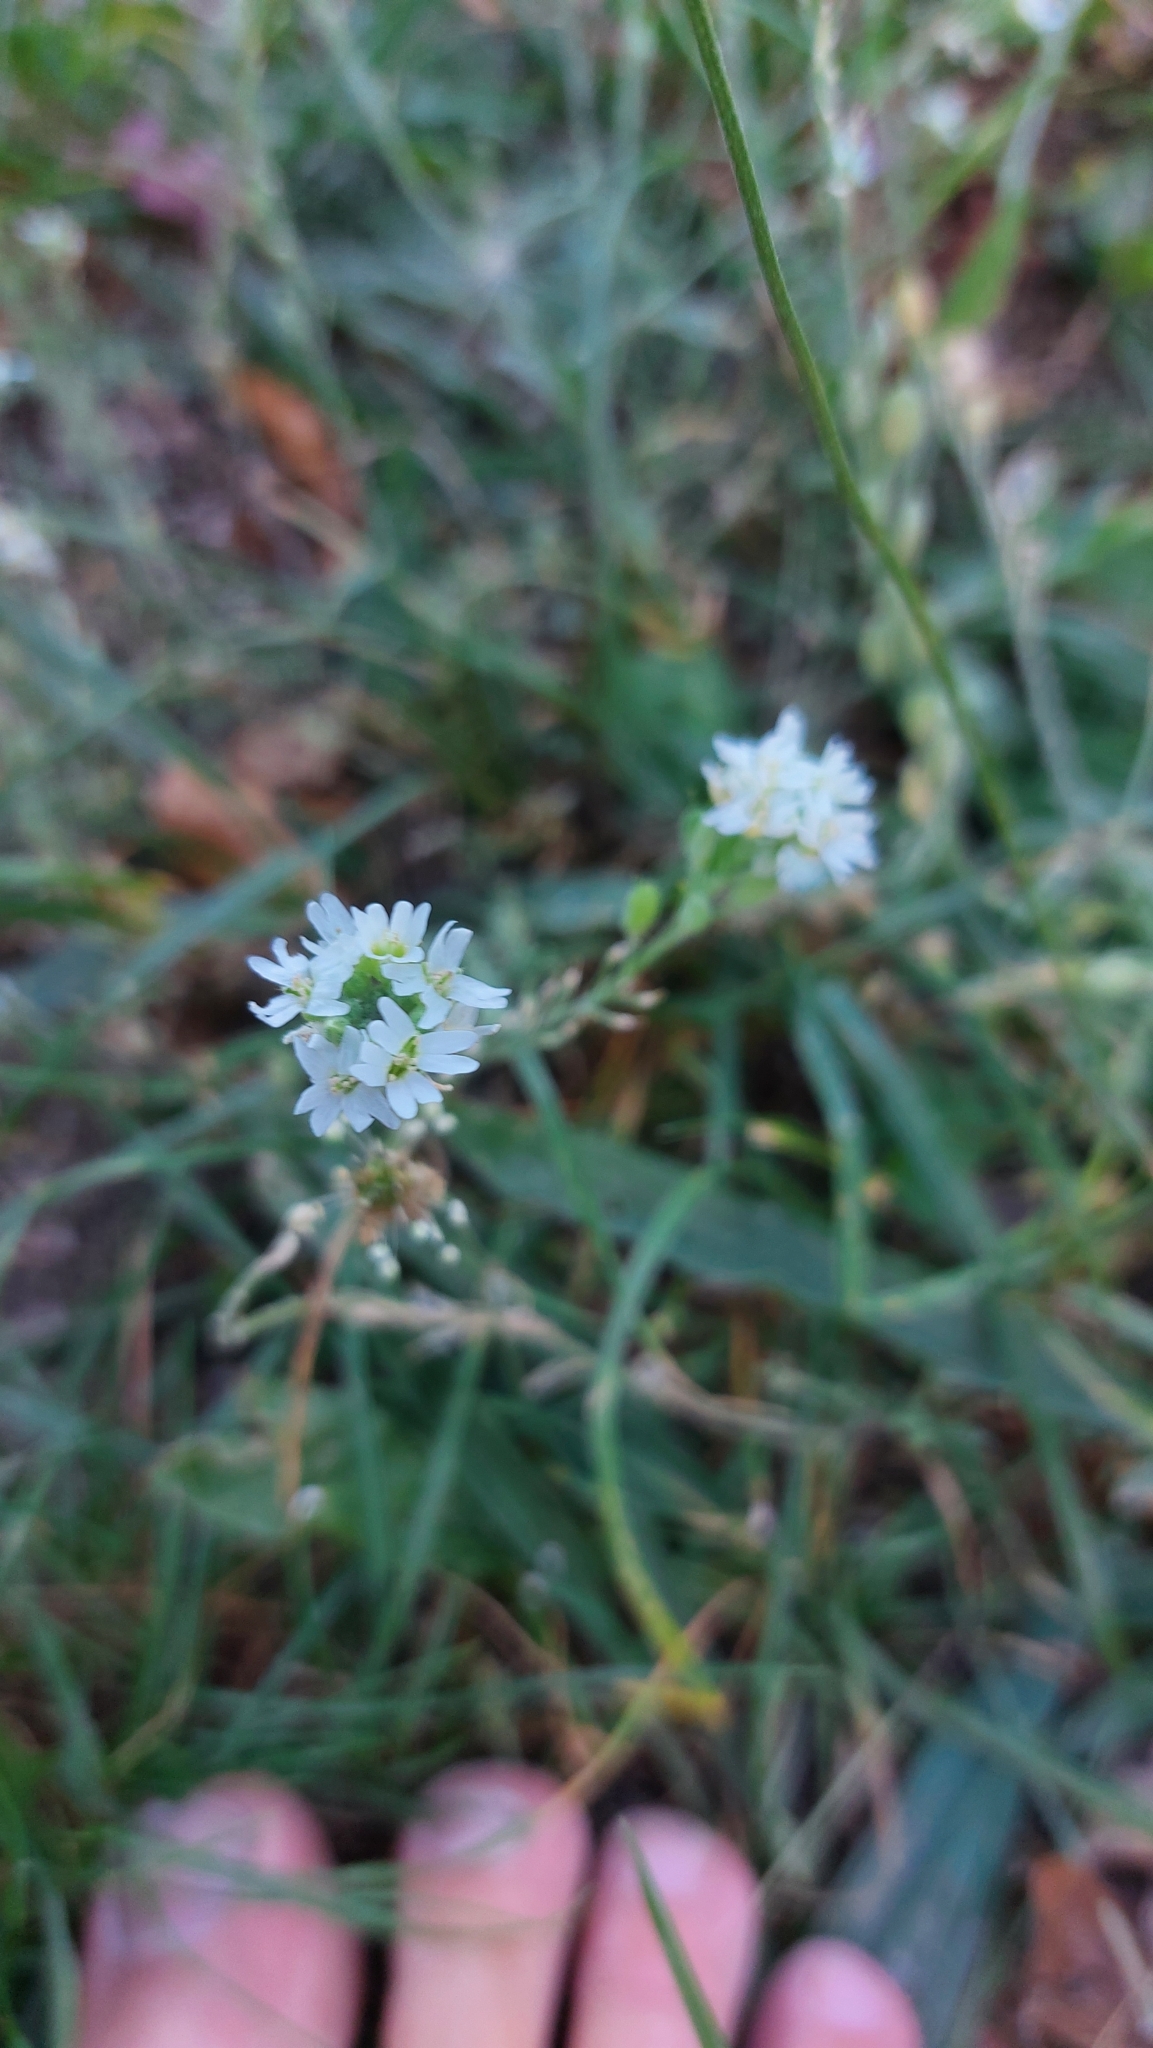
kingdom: Plantae
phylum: Tracheophyta
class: Magnoliopsida
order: Brassicales
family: Brassicaceae
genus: Berteroa
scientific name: Berteroa incana
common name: Hoary alison
